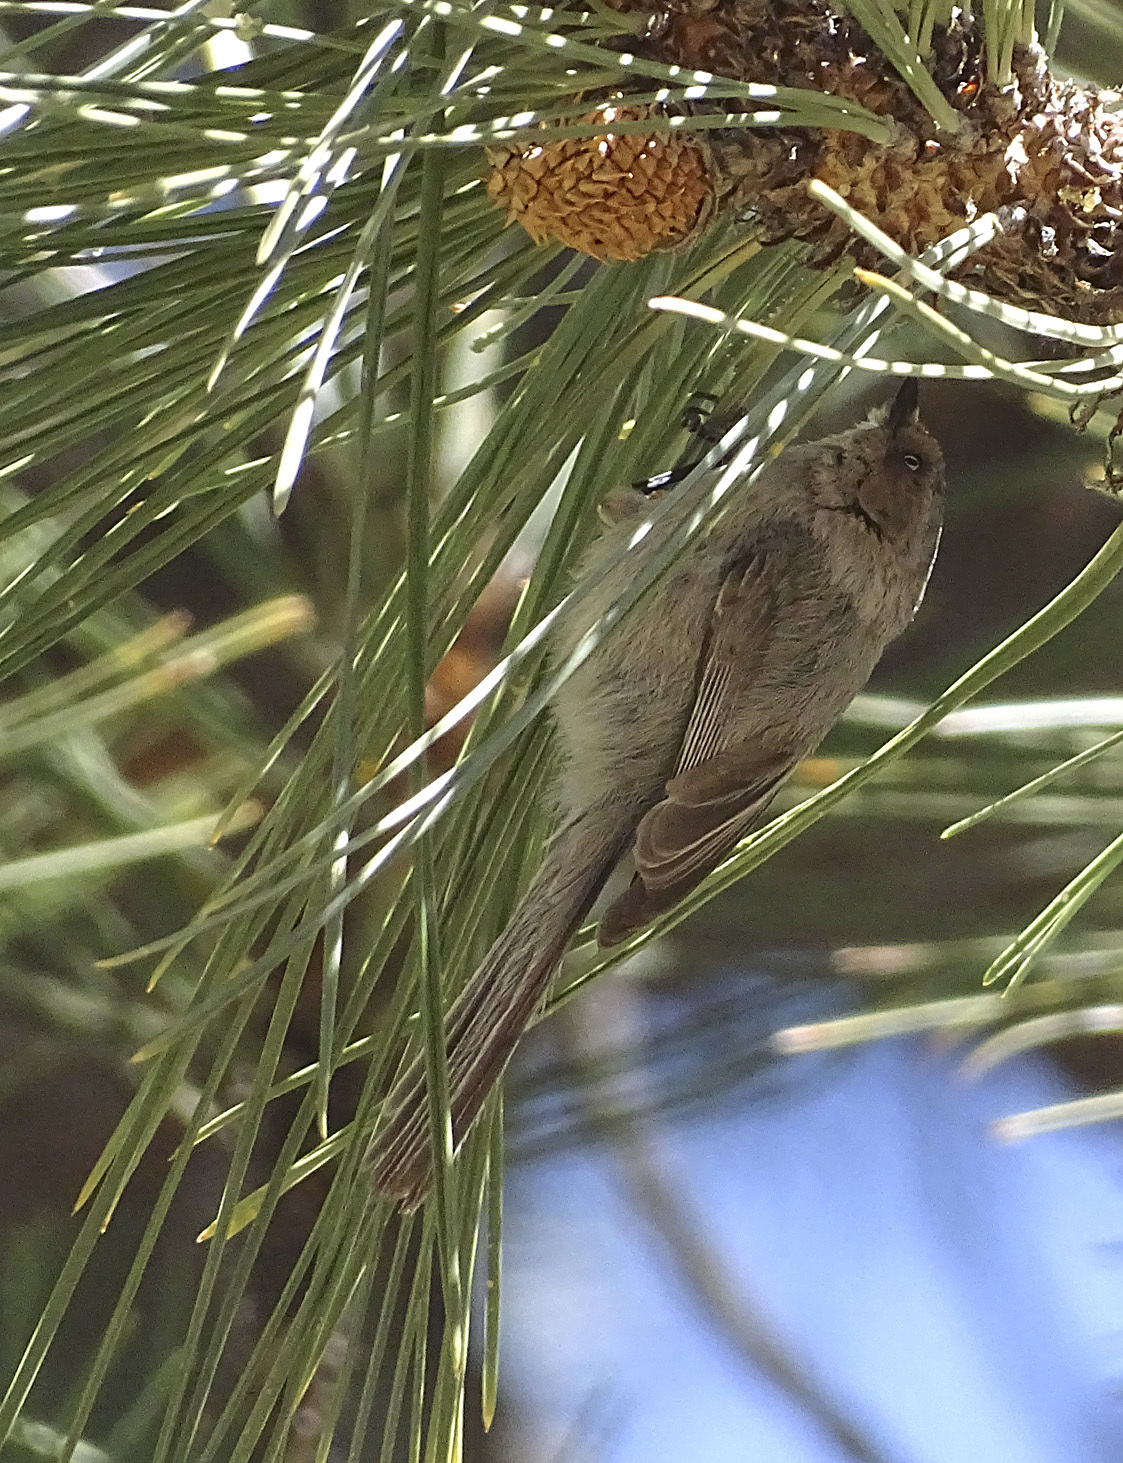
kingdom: Animalia
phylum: Chordata
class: Aves
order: Passeriformes
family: Aegithalidae
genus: Psaltriparus
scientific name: Psaltriparus minimus
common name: American bushtit
